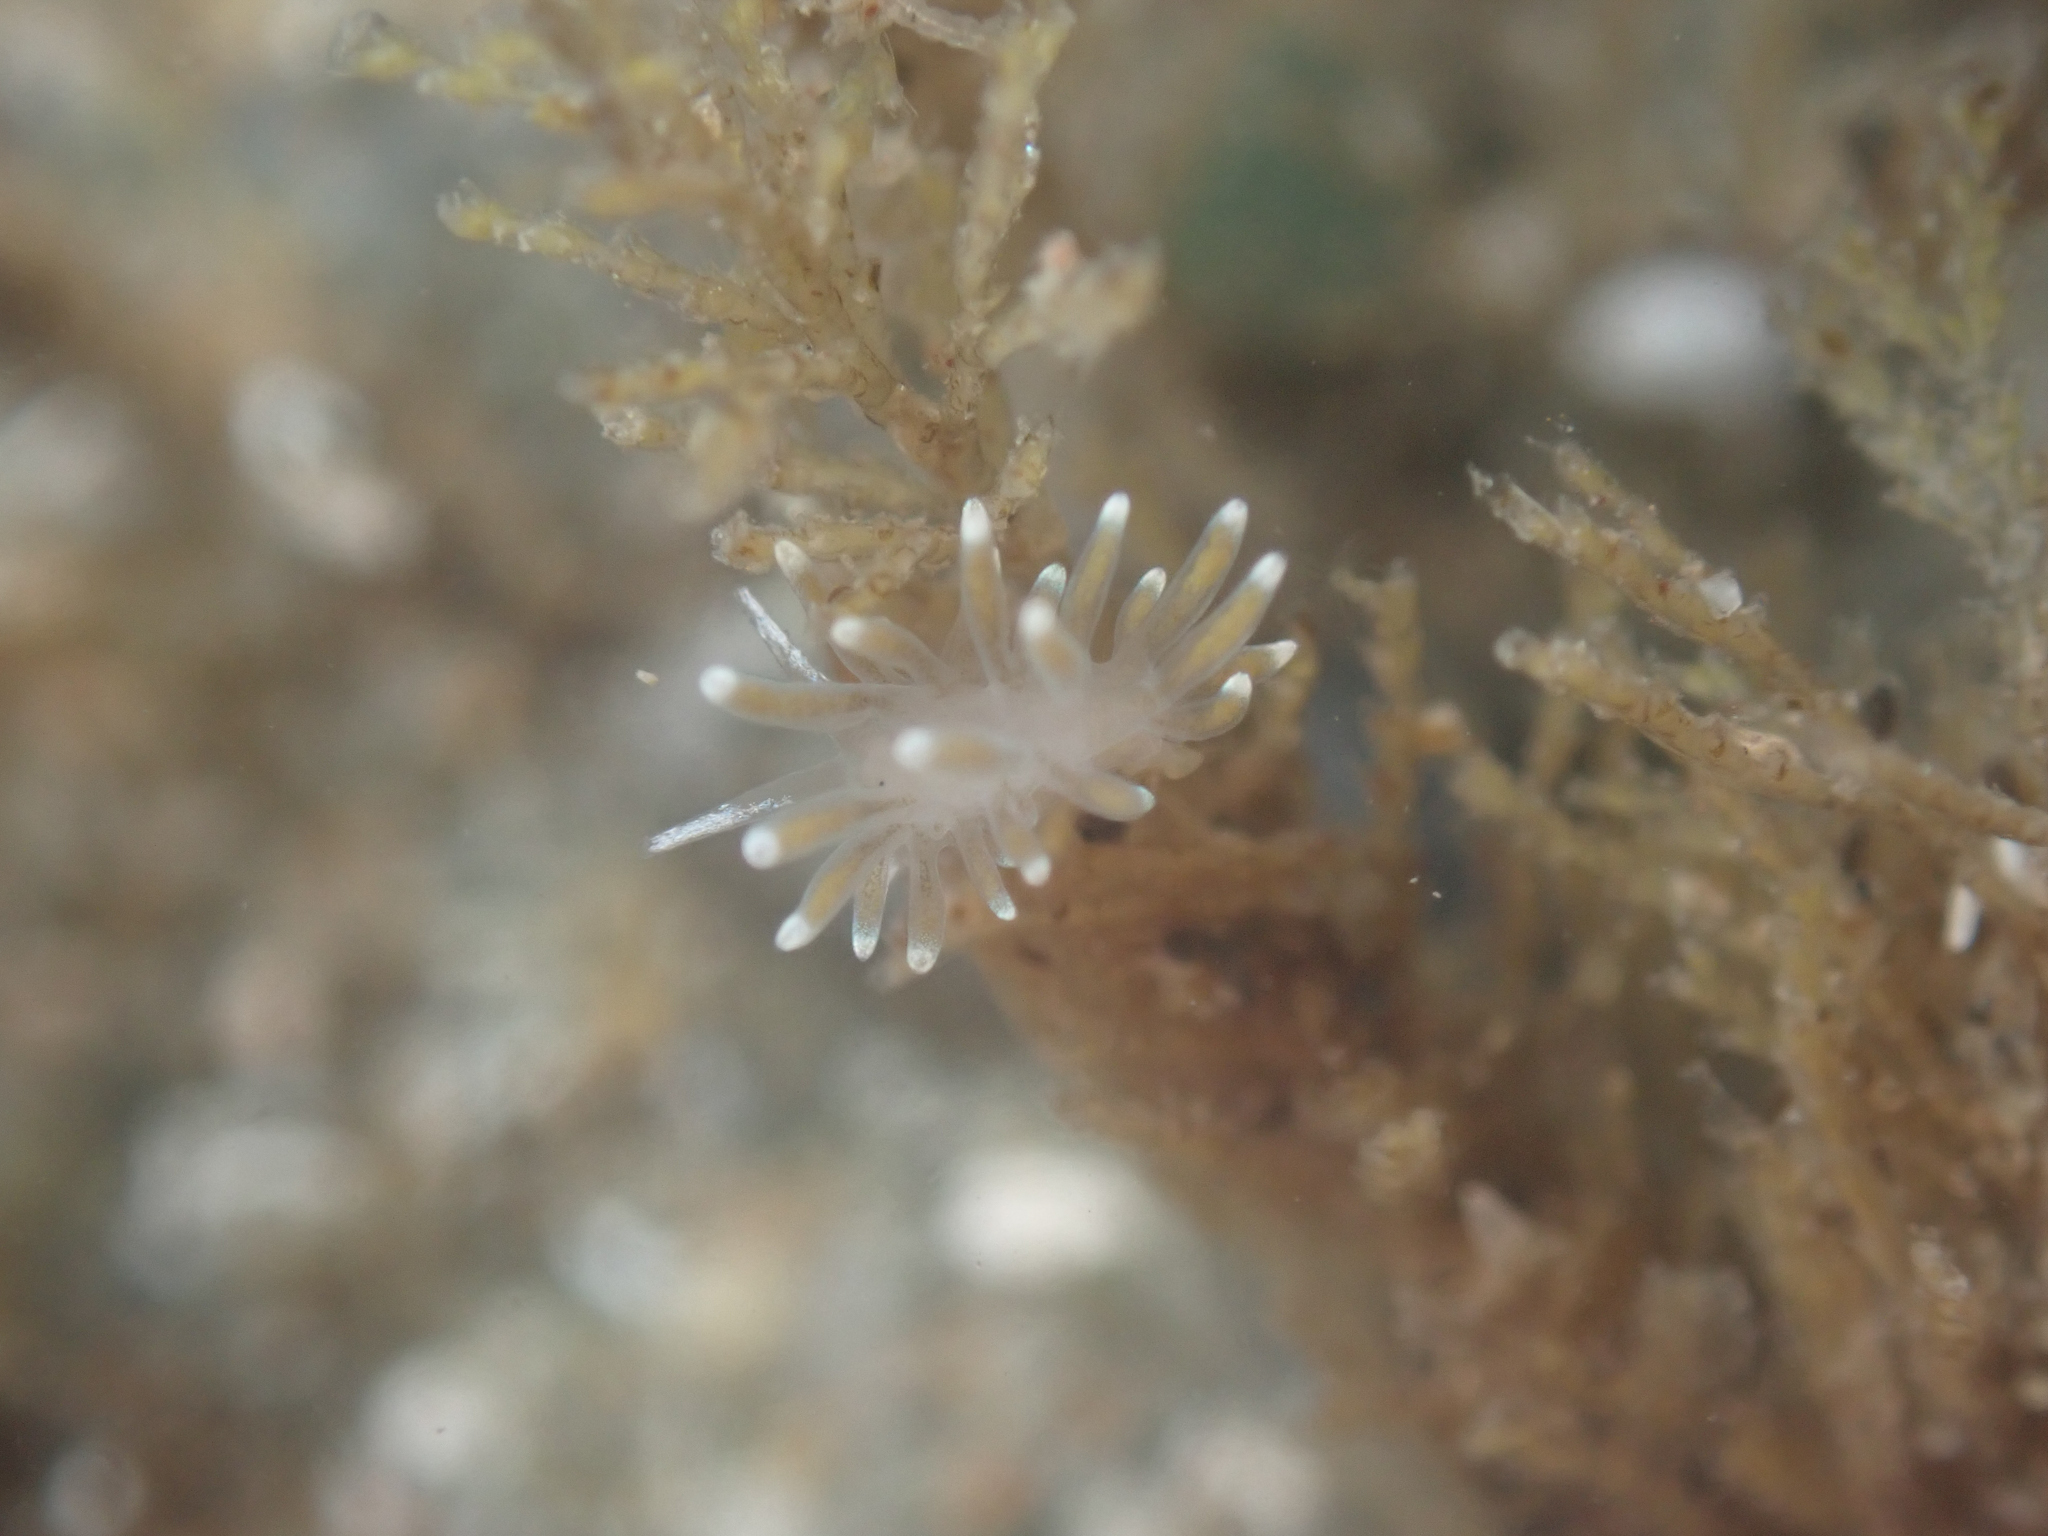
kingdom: Animalia
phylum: Mollusca
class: Gastropoda
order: Nudibranchia
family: Cuthonellidae
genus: Cuthonella
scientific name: Cuthonella cocoachroma
